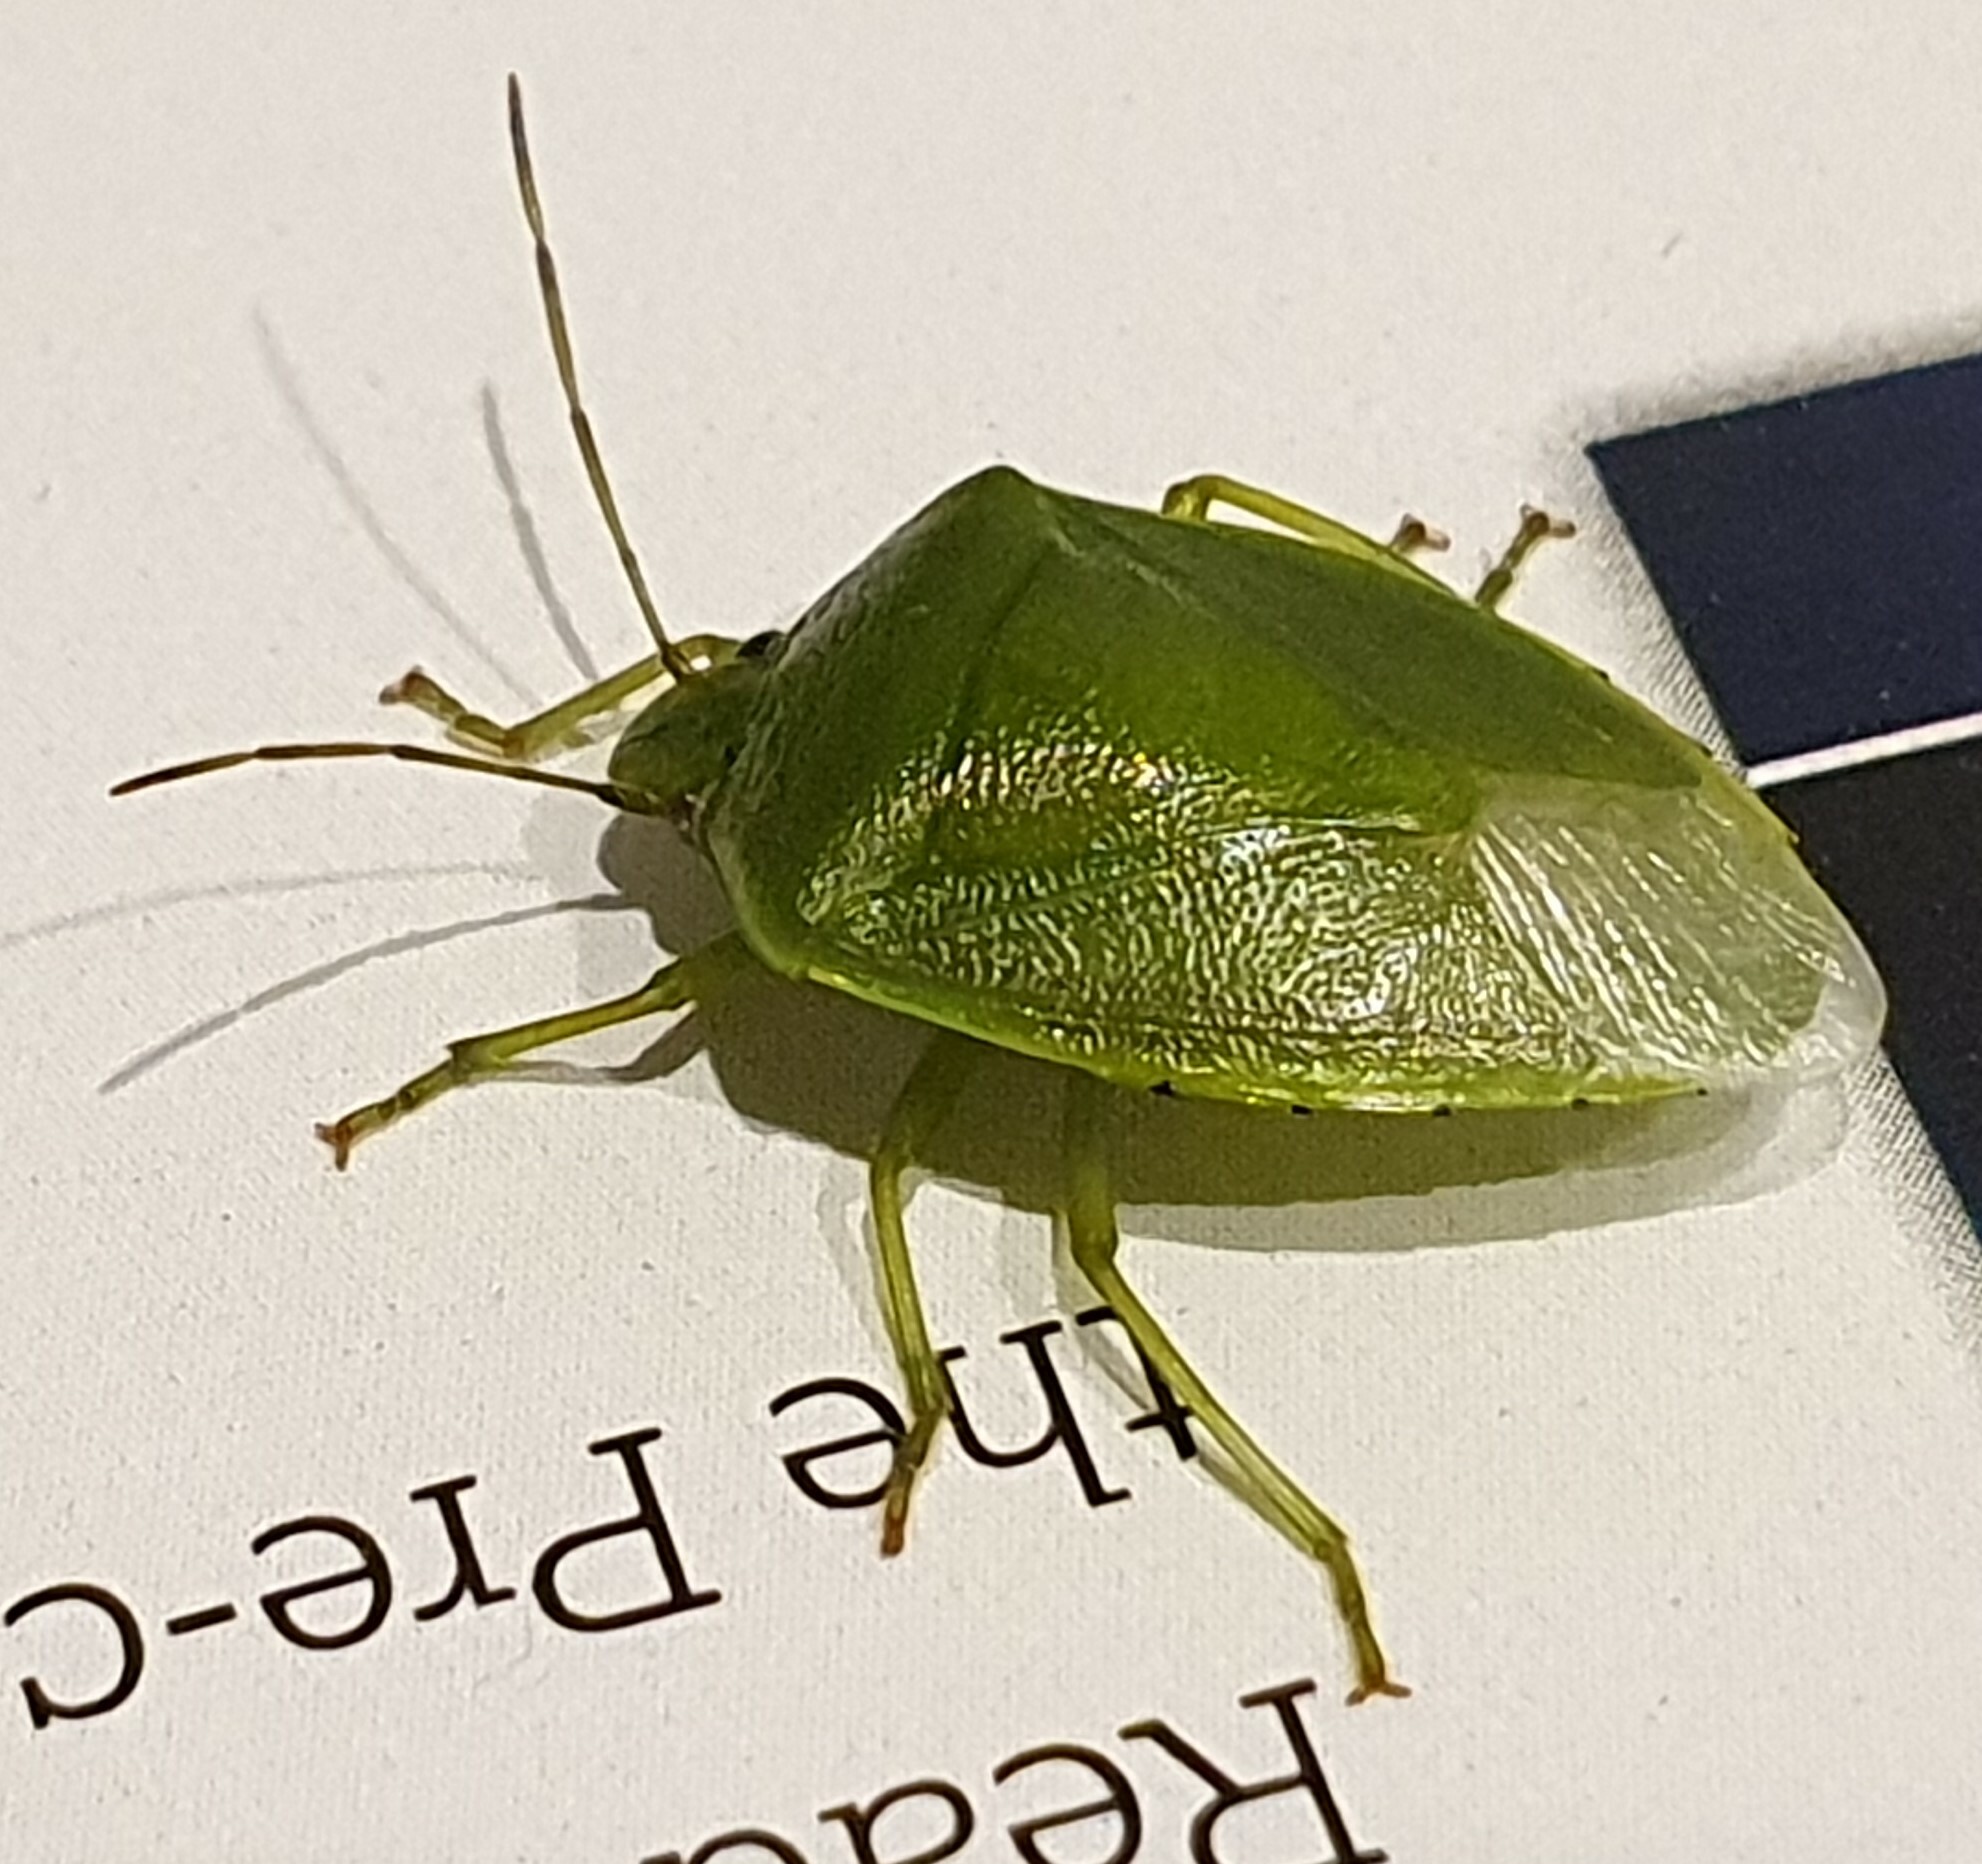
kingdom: Animalia
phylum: Arthropoda
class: Insecta
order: Hemiptera
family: Pentatomidae
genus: Glaucias
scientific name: Glaucias amyota
